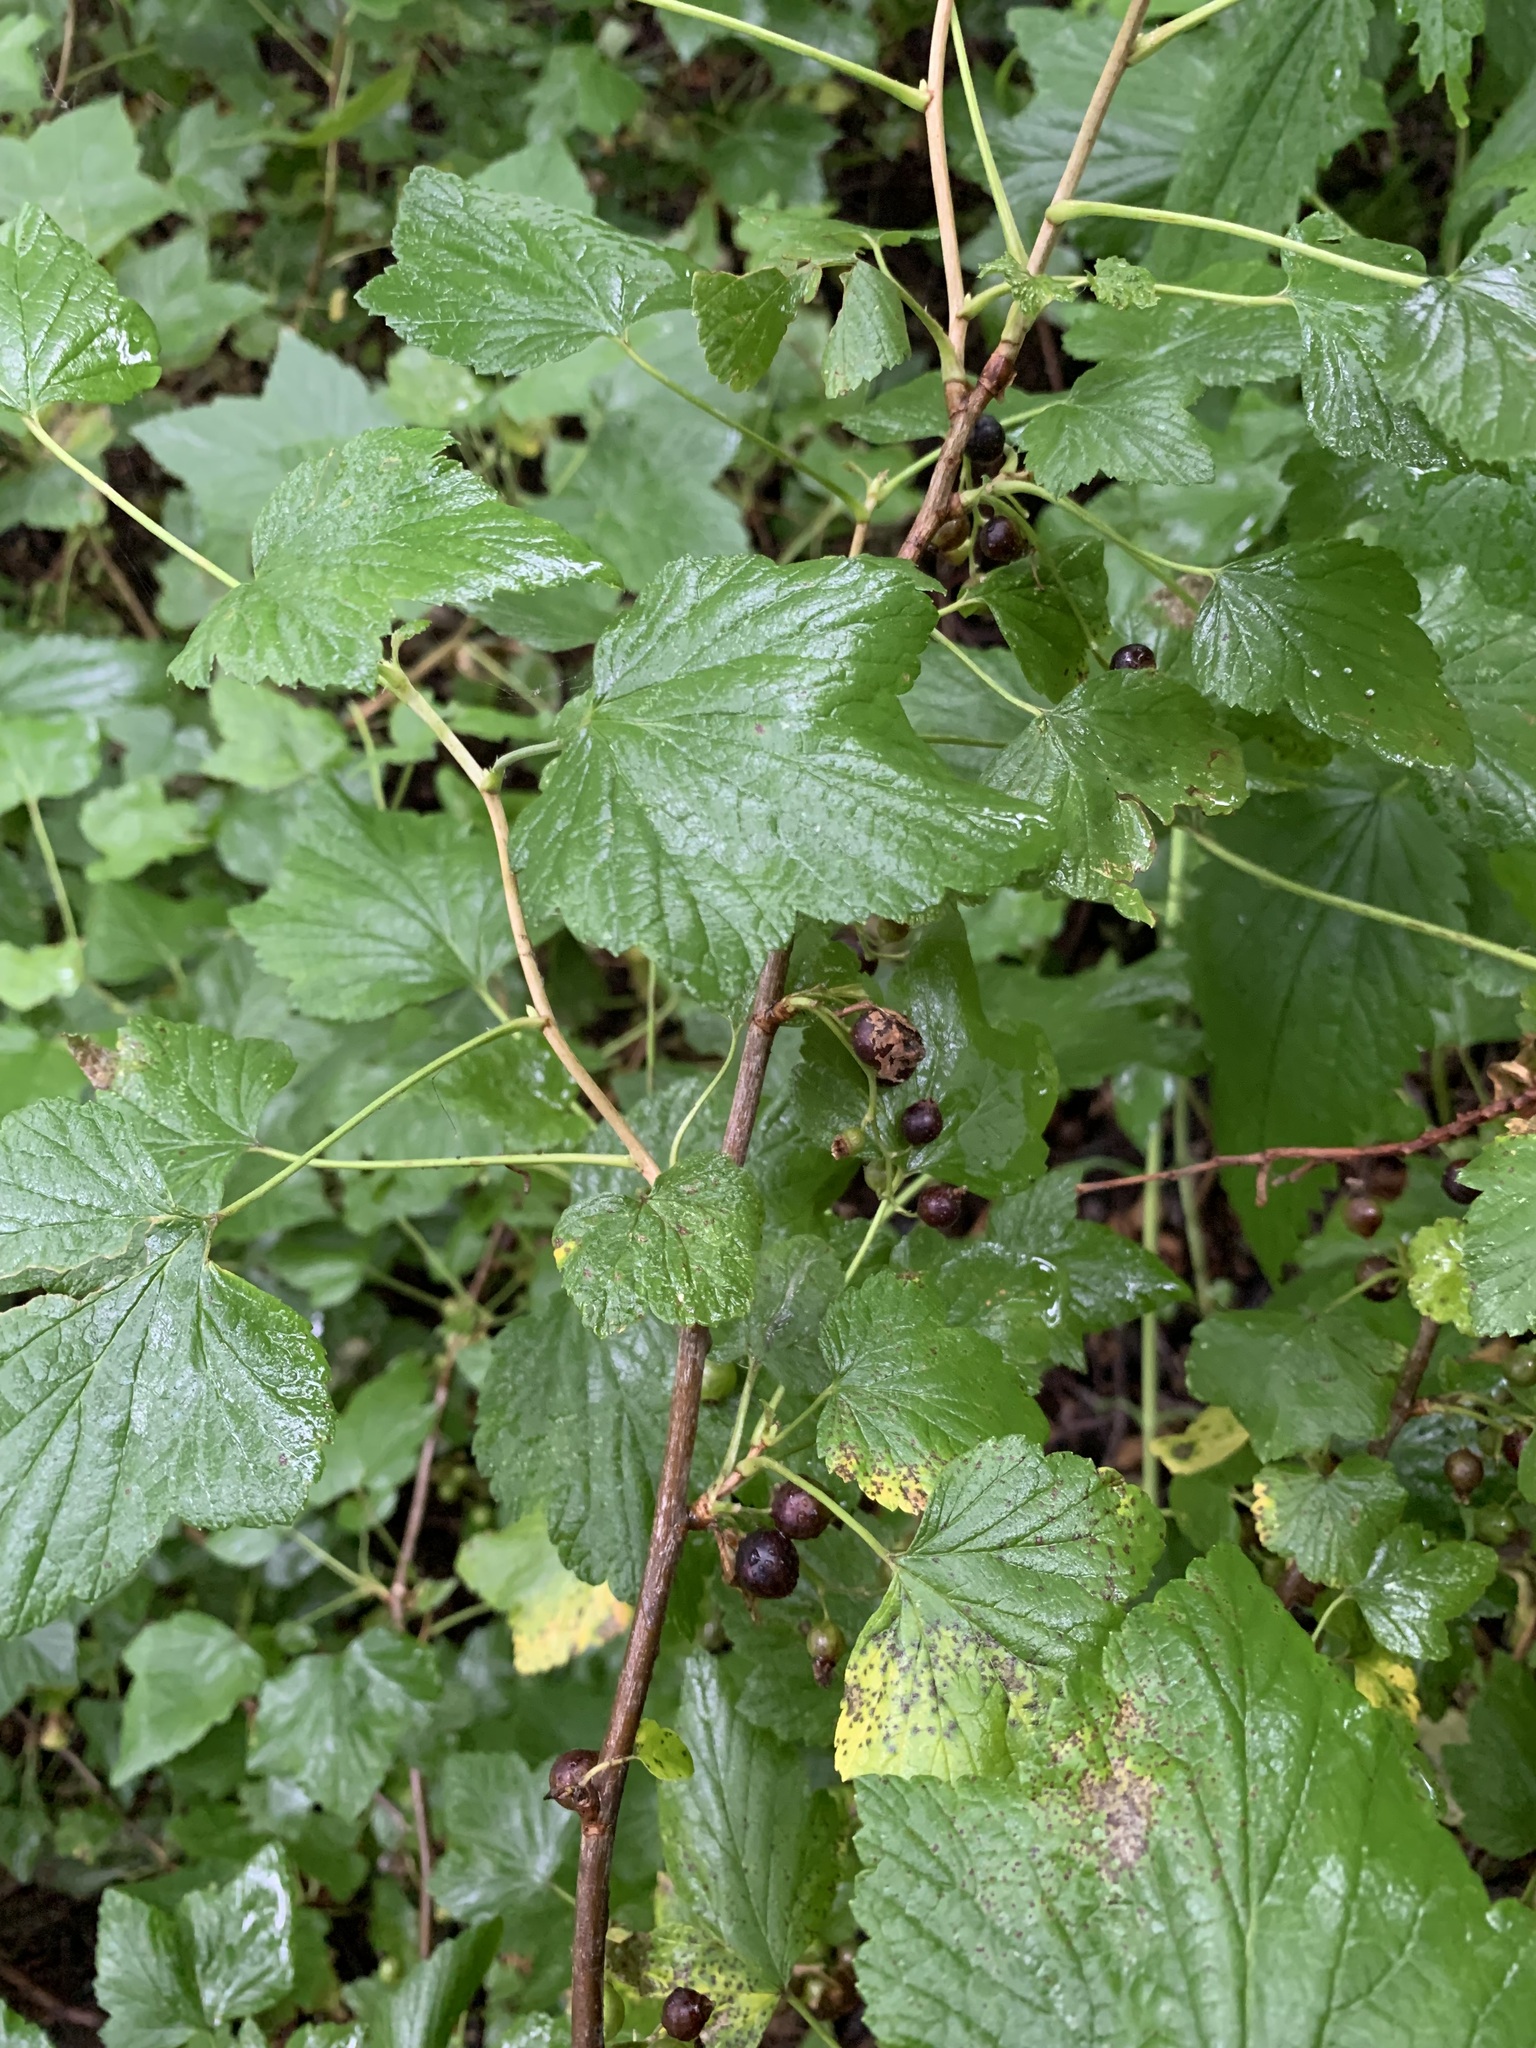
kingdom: Plantae
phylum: Tracheophyta
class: Magnoliopsida
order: Saxifragales
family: Grossulariaceae
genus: Ribes
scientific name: Ribes nigrum
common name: Black currant
